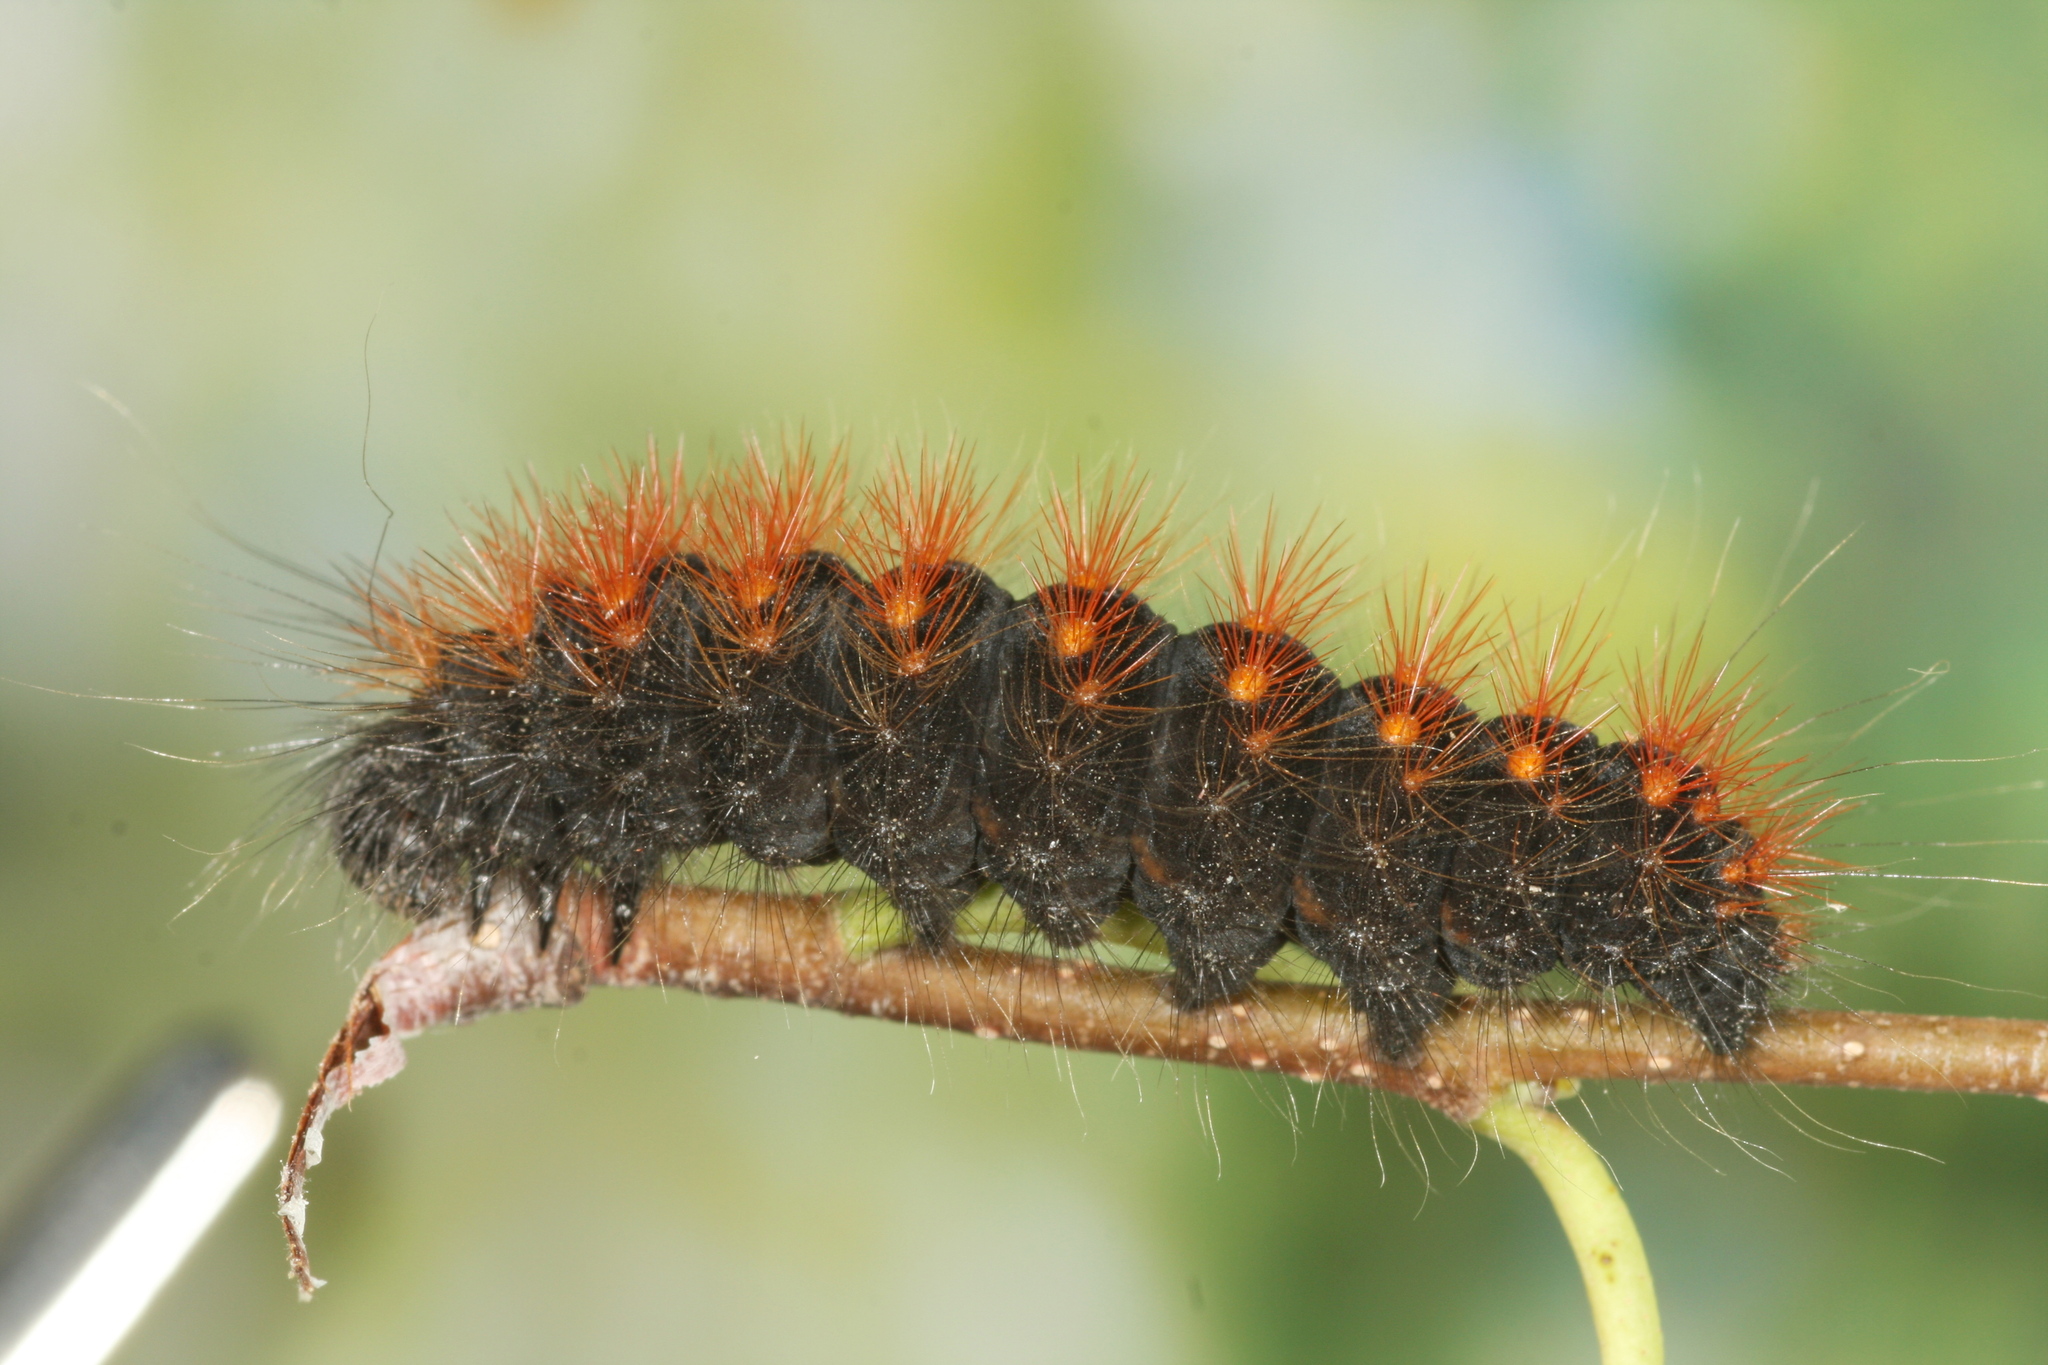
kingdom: Animalia
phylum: Arthropoda
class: Insecta
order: Lepidoptera
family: Noctuidae
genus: Acronicta
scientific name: Acronicta auricoma
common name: Scarce dagger
